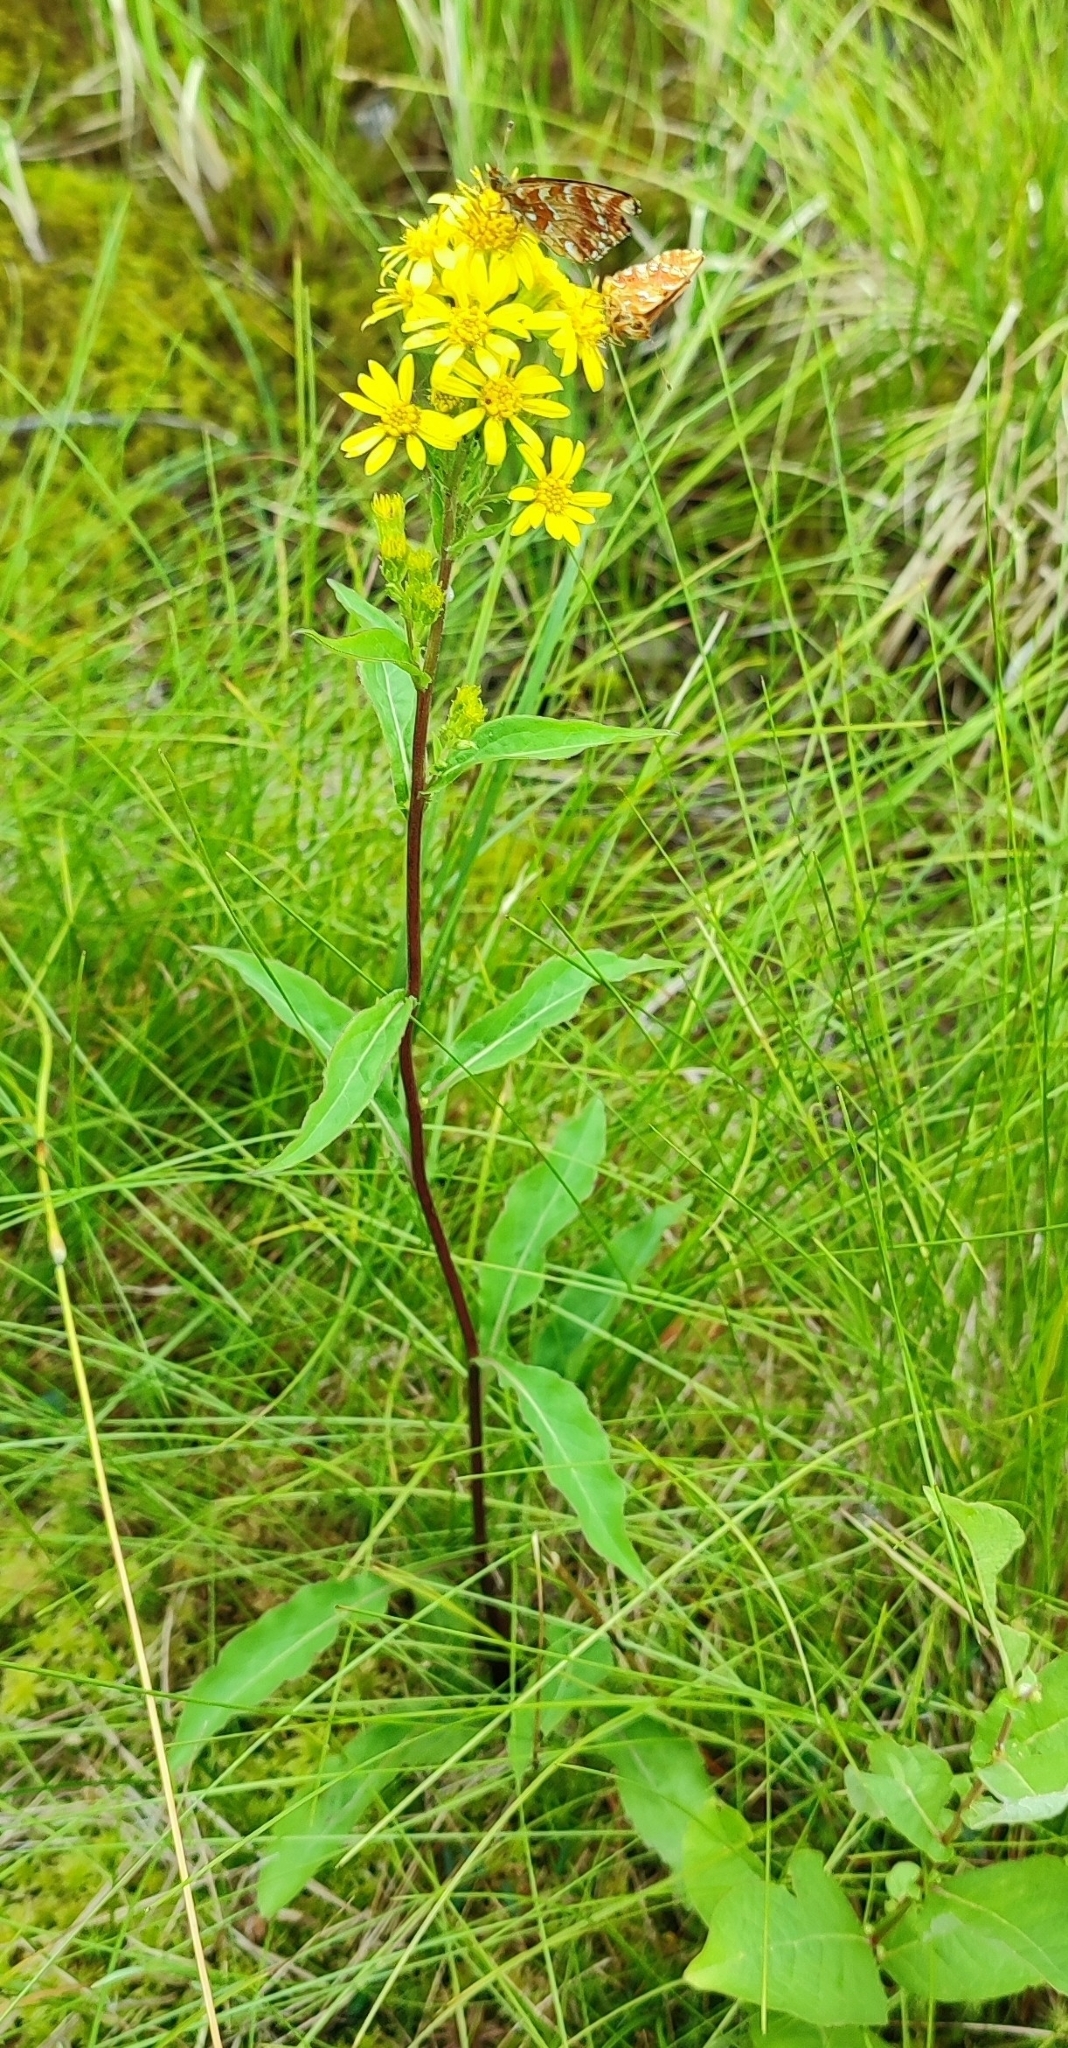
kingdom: Plantae
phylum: Tracheophyta
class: Magnoliopsida
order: Asterales
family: Asteraceae
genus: Solidago
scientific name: Solidago virgaurea
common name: Goldenrod
